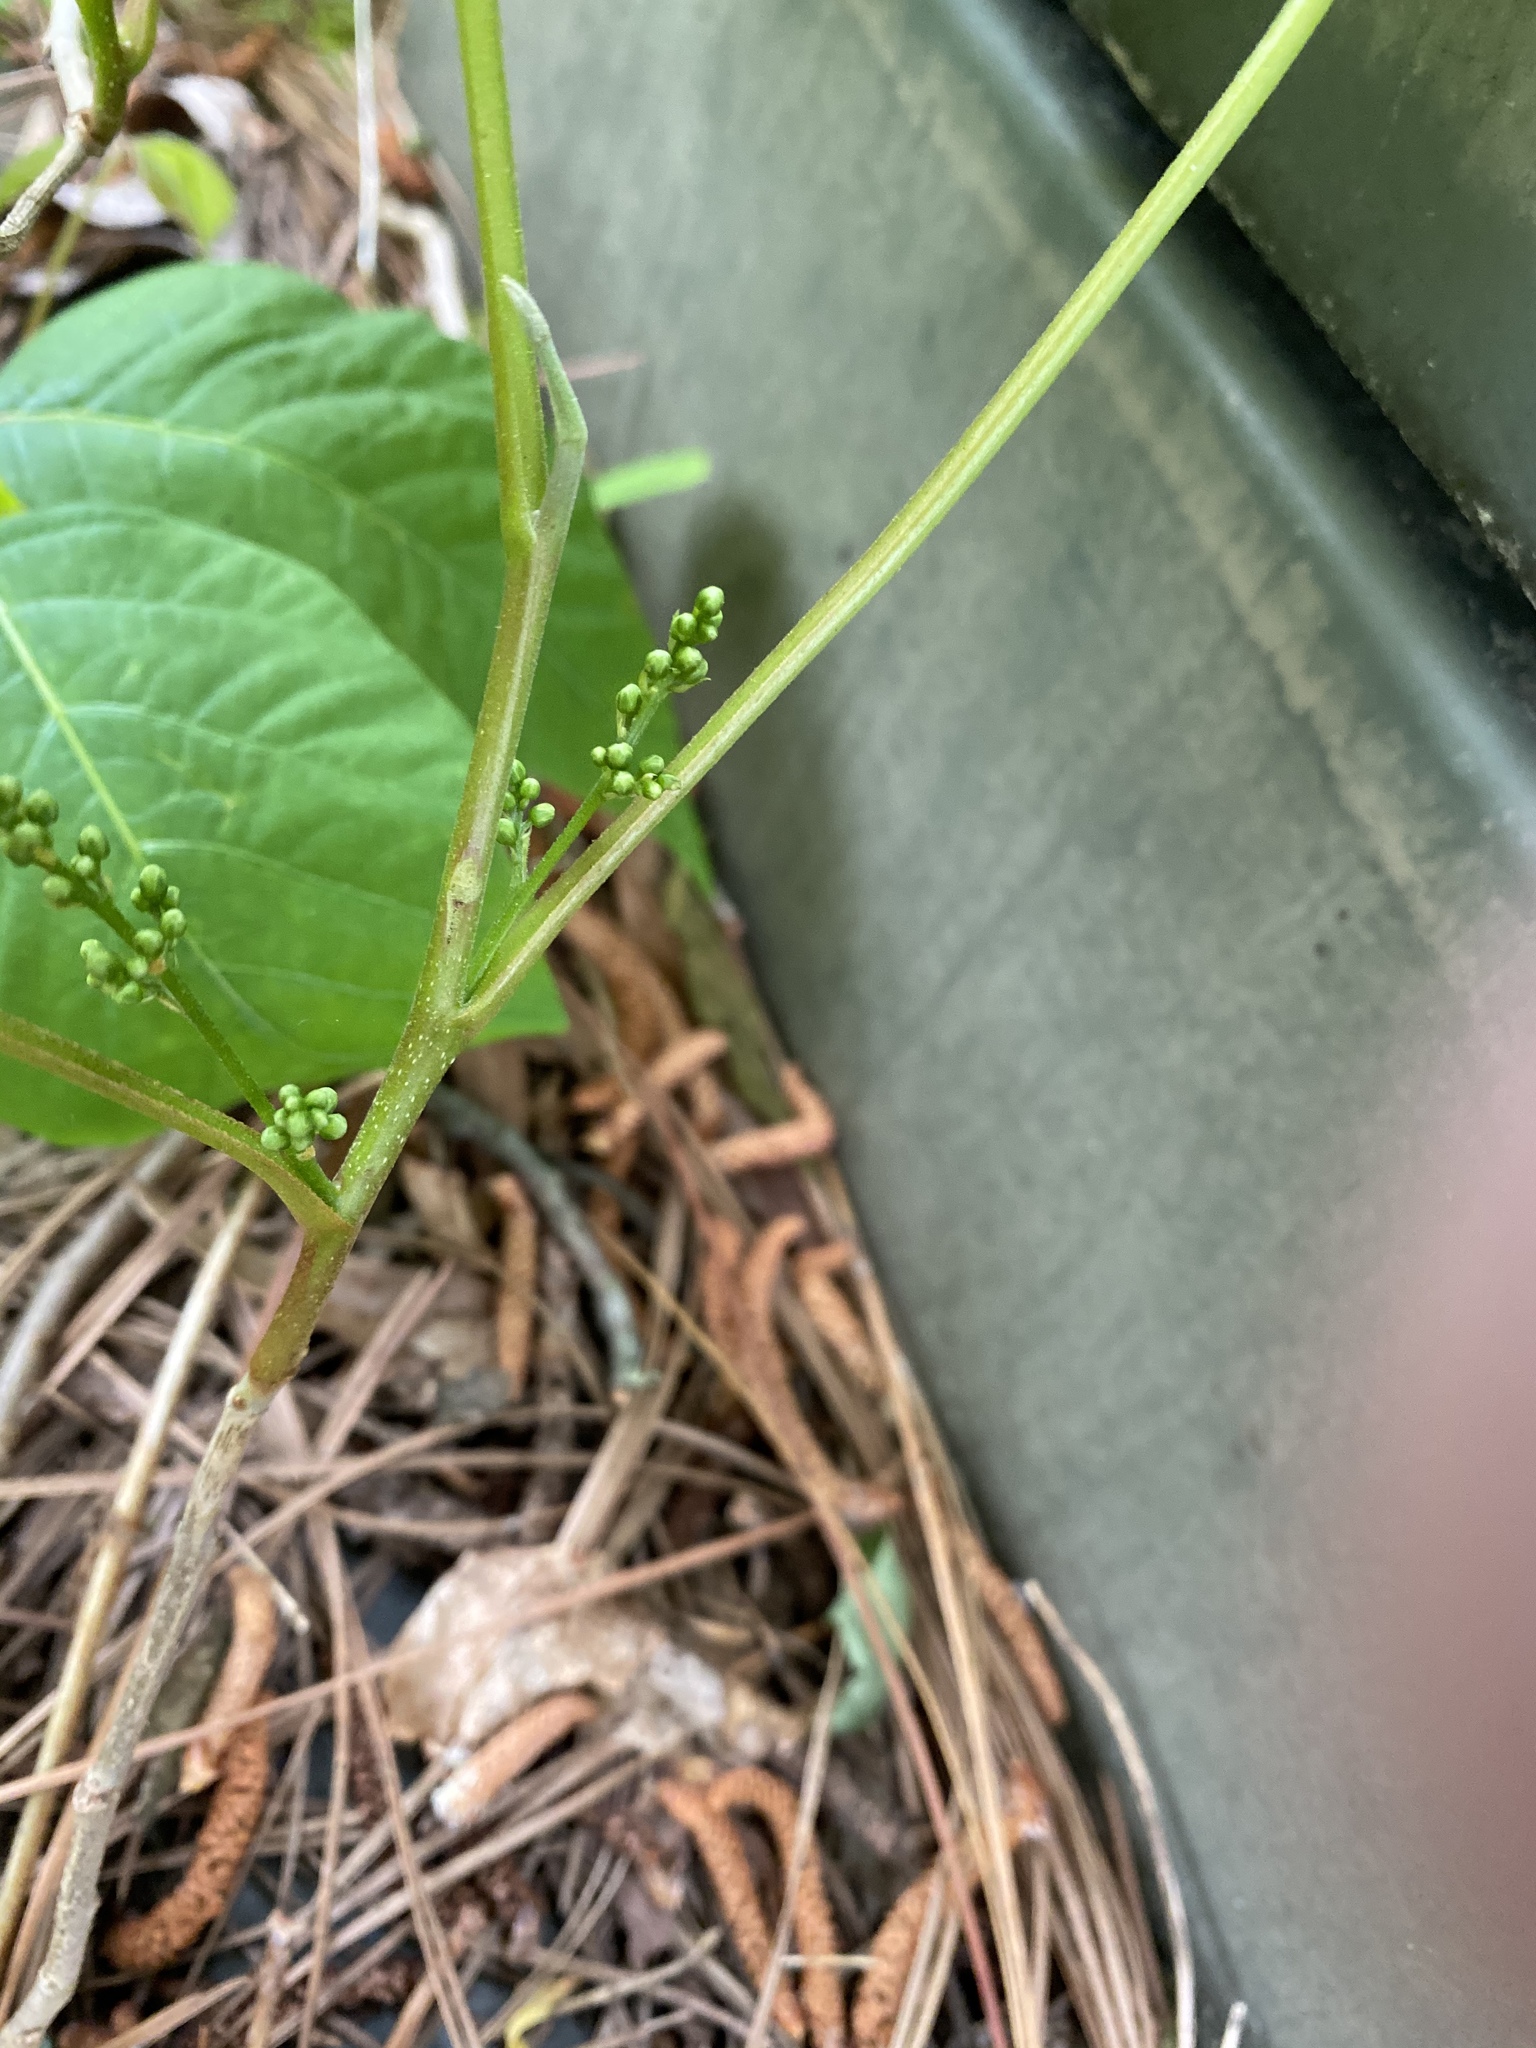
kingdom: Plantae
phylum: Tracheophyta
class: Magnoliopsida
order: Sapindales
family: Anacardiaceae
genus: Toxicodendron
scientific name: Toxicodendron radicans
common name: Poison ivy
